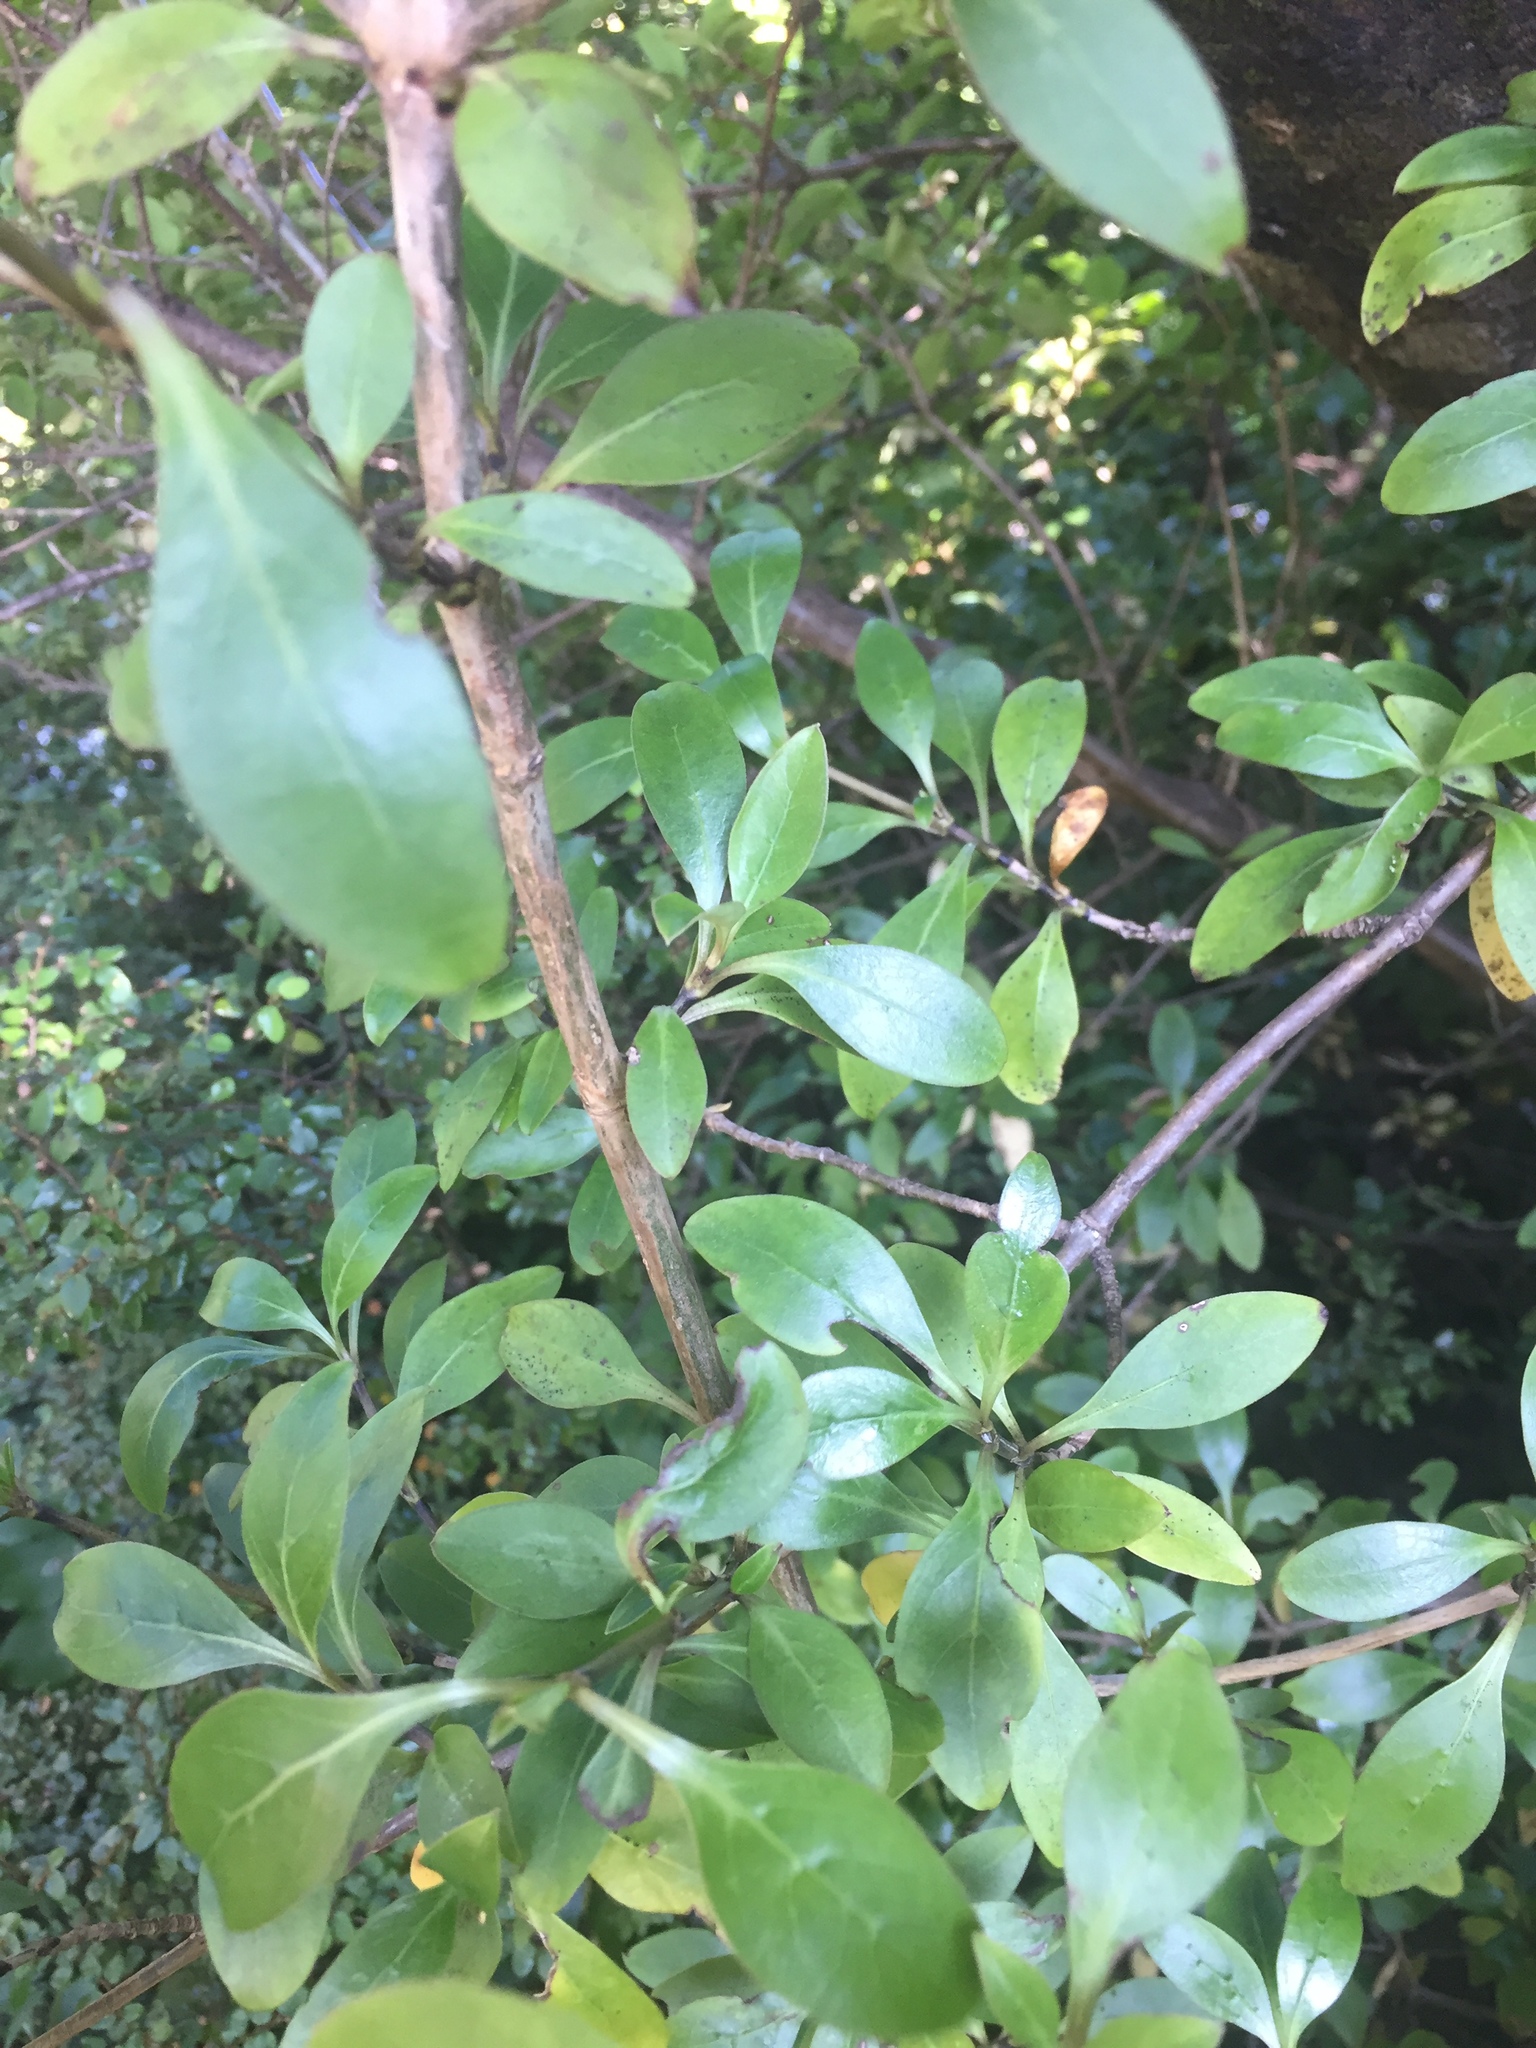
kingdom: Plantae
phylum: Tracheophyta
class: Magnoliopsida
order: Gentianales
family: Rubiaceae
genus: Coprosma
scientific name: Coprosma foetidissima
